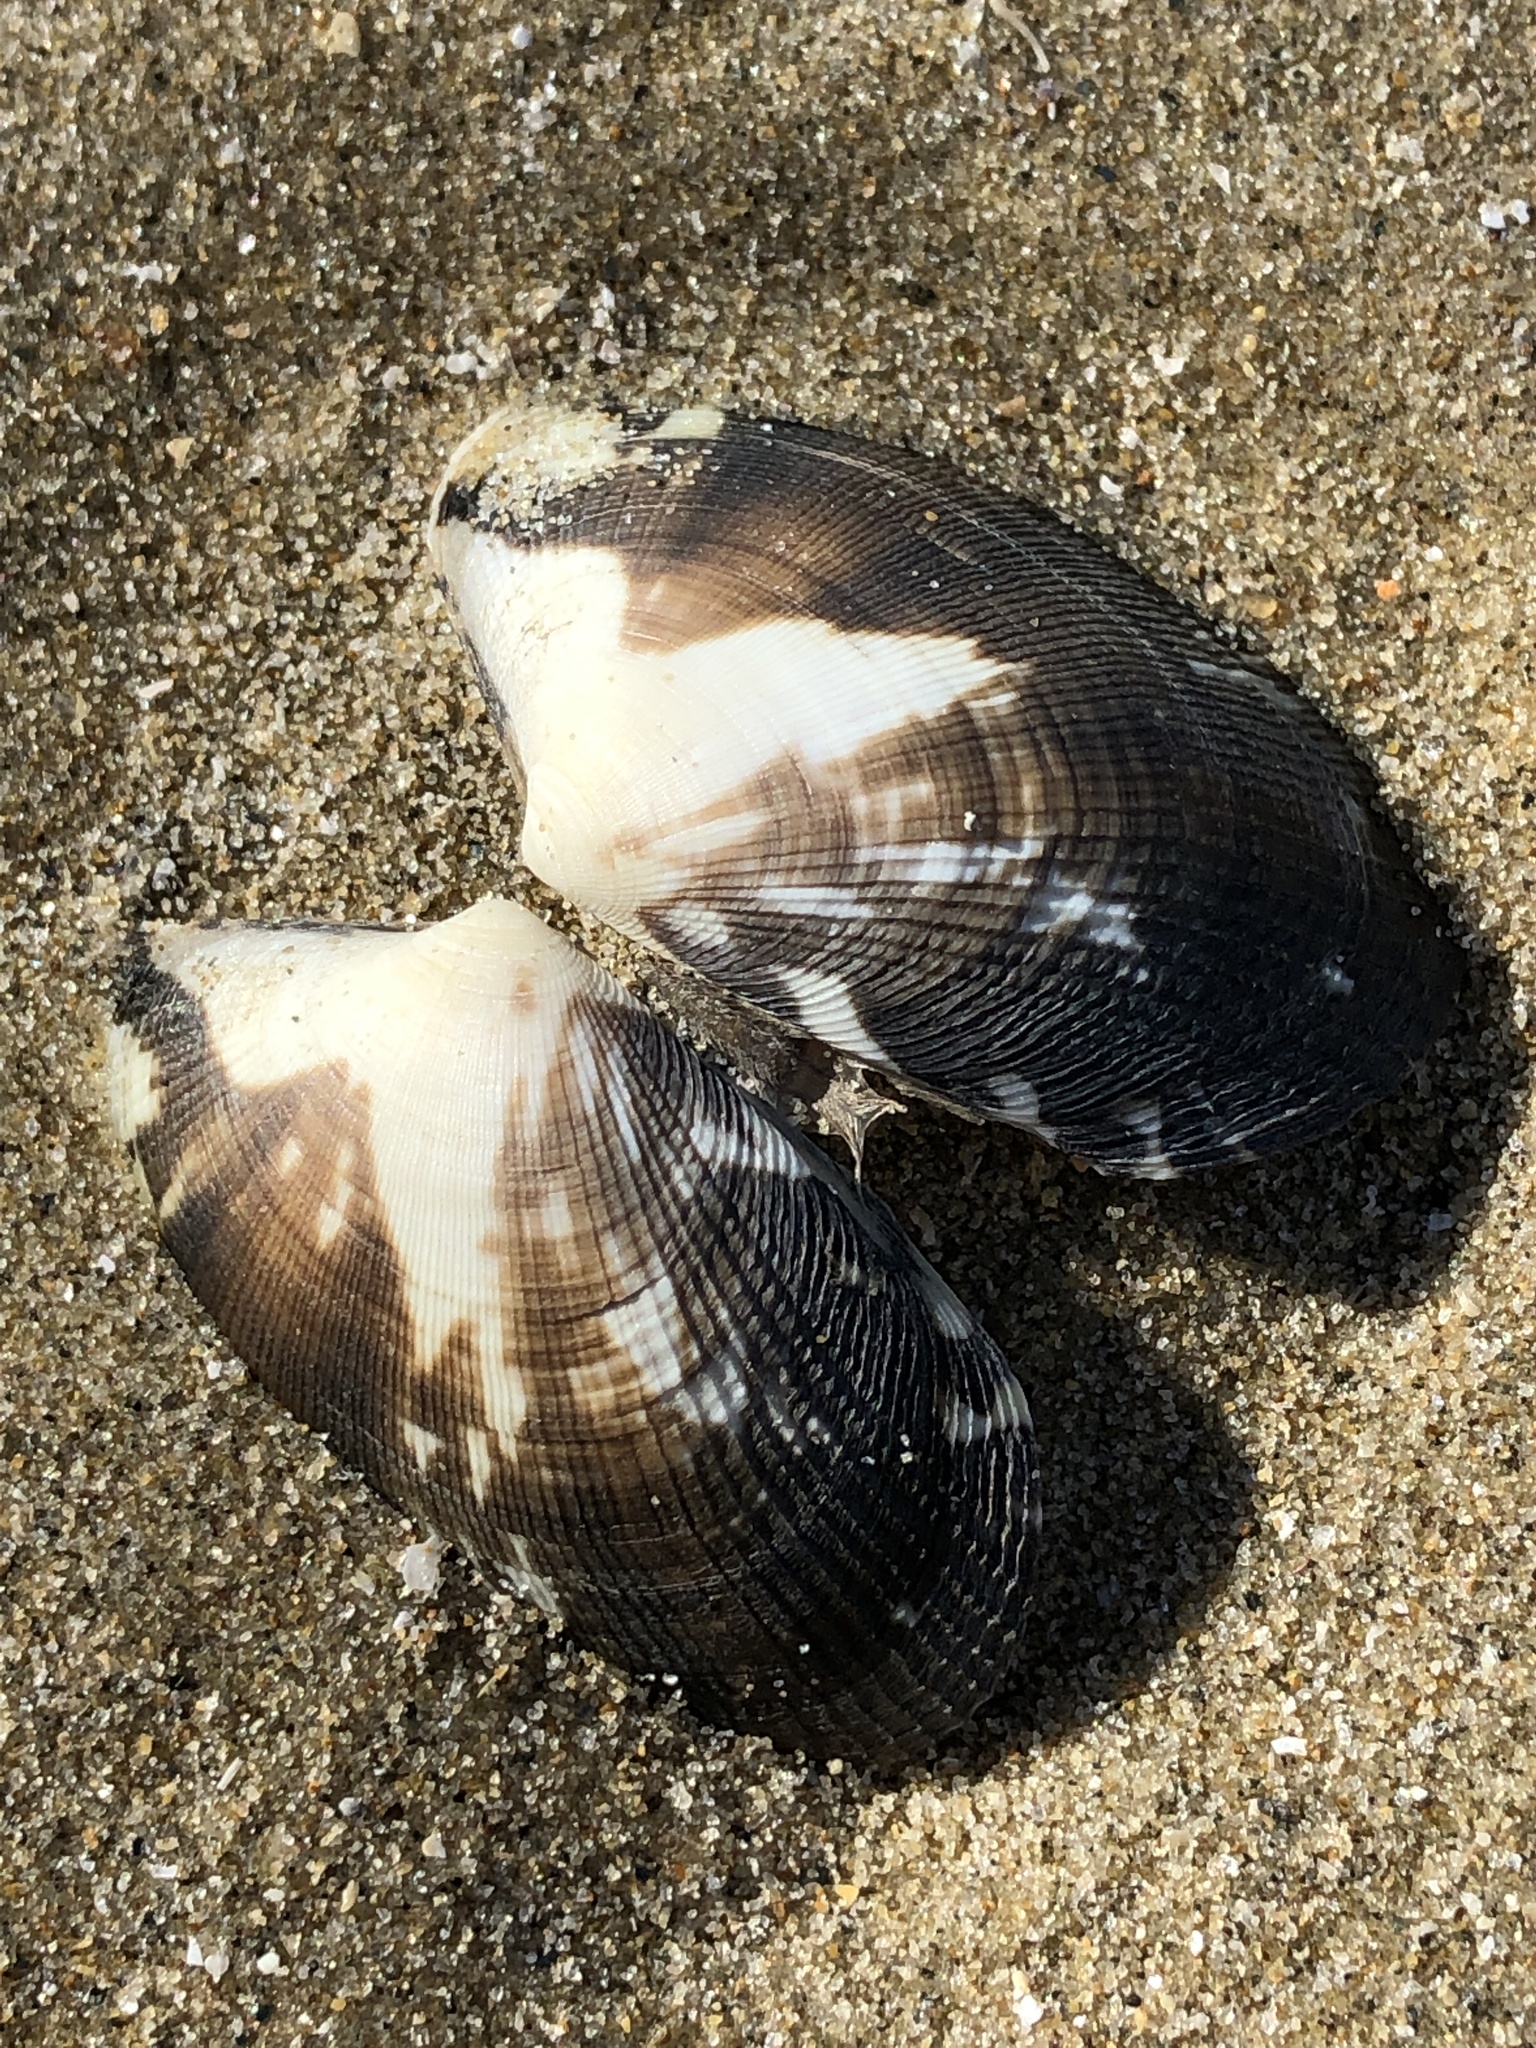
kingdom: Animalia
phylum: Mollusca
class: Bivalvia
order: Venerida
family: Veneridae
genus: Ruditapes
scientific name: Ruditapes philippinarum
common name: Manila clam
